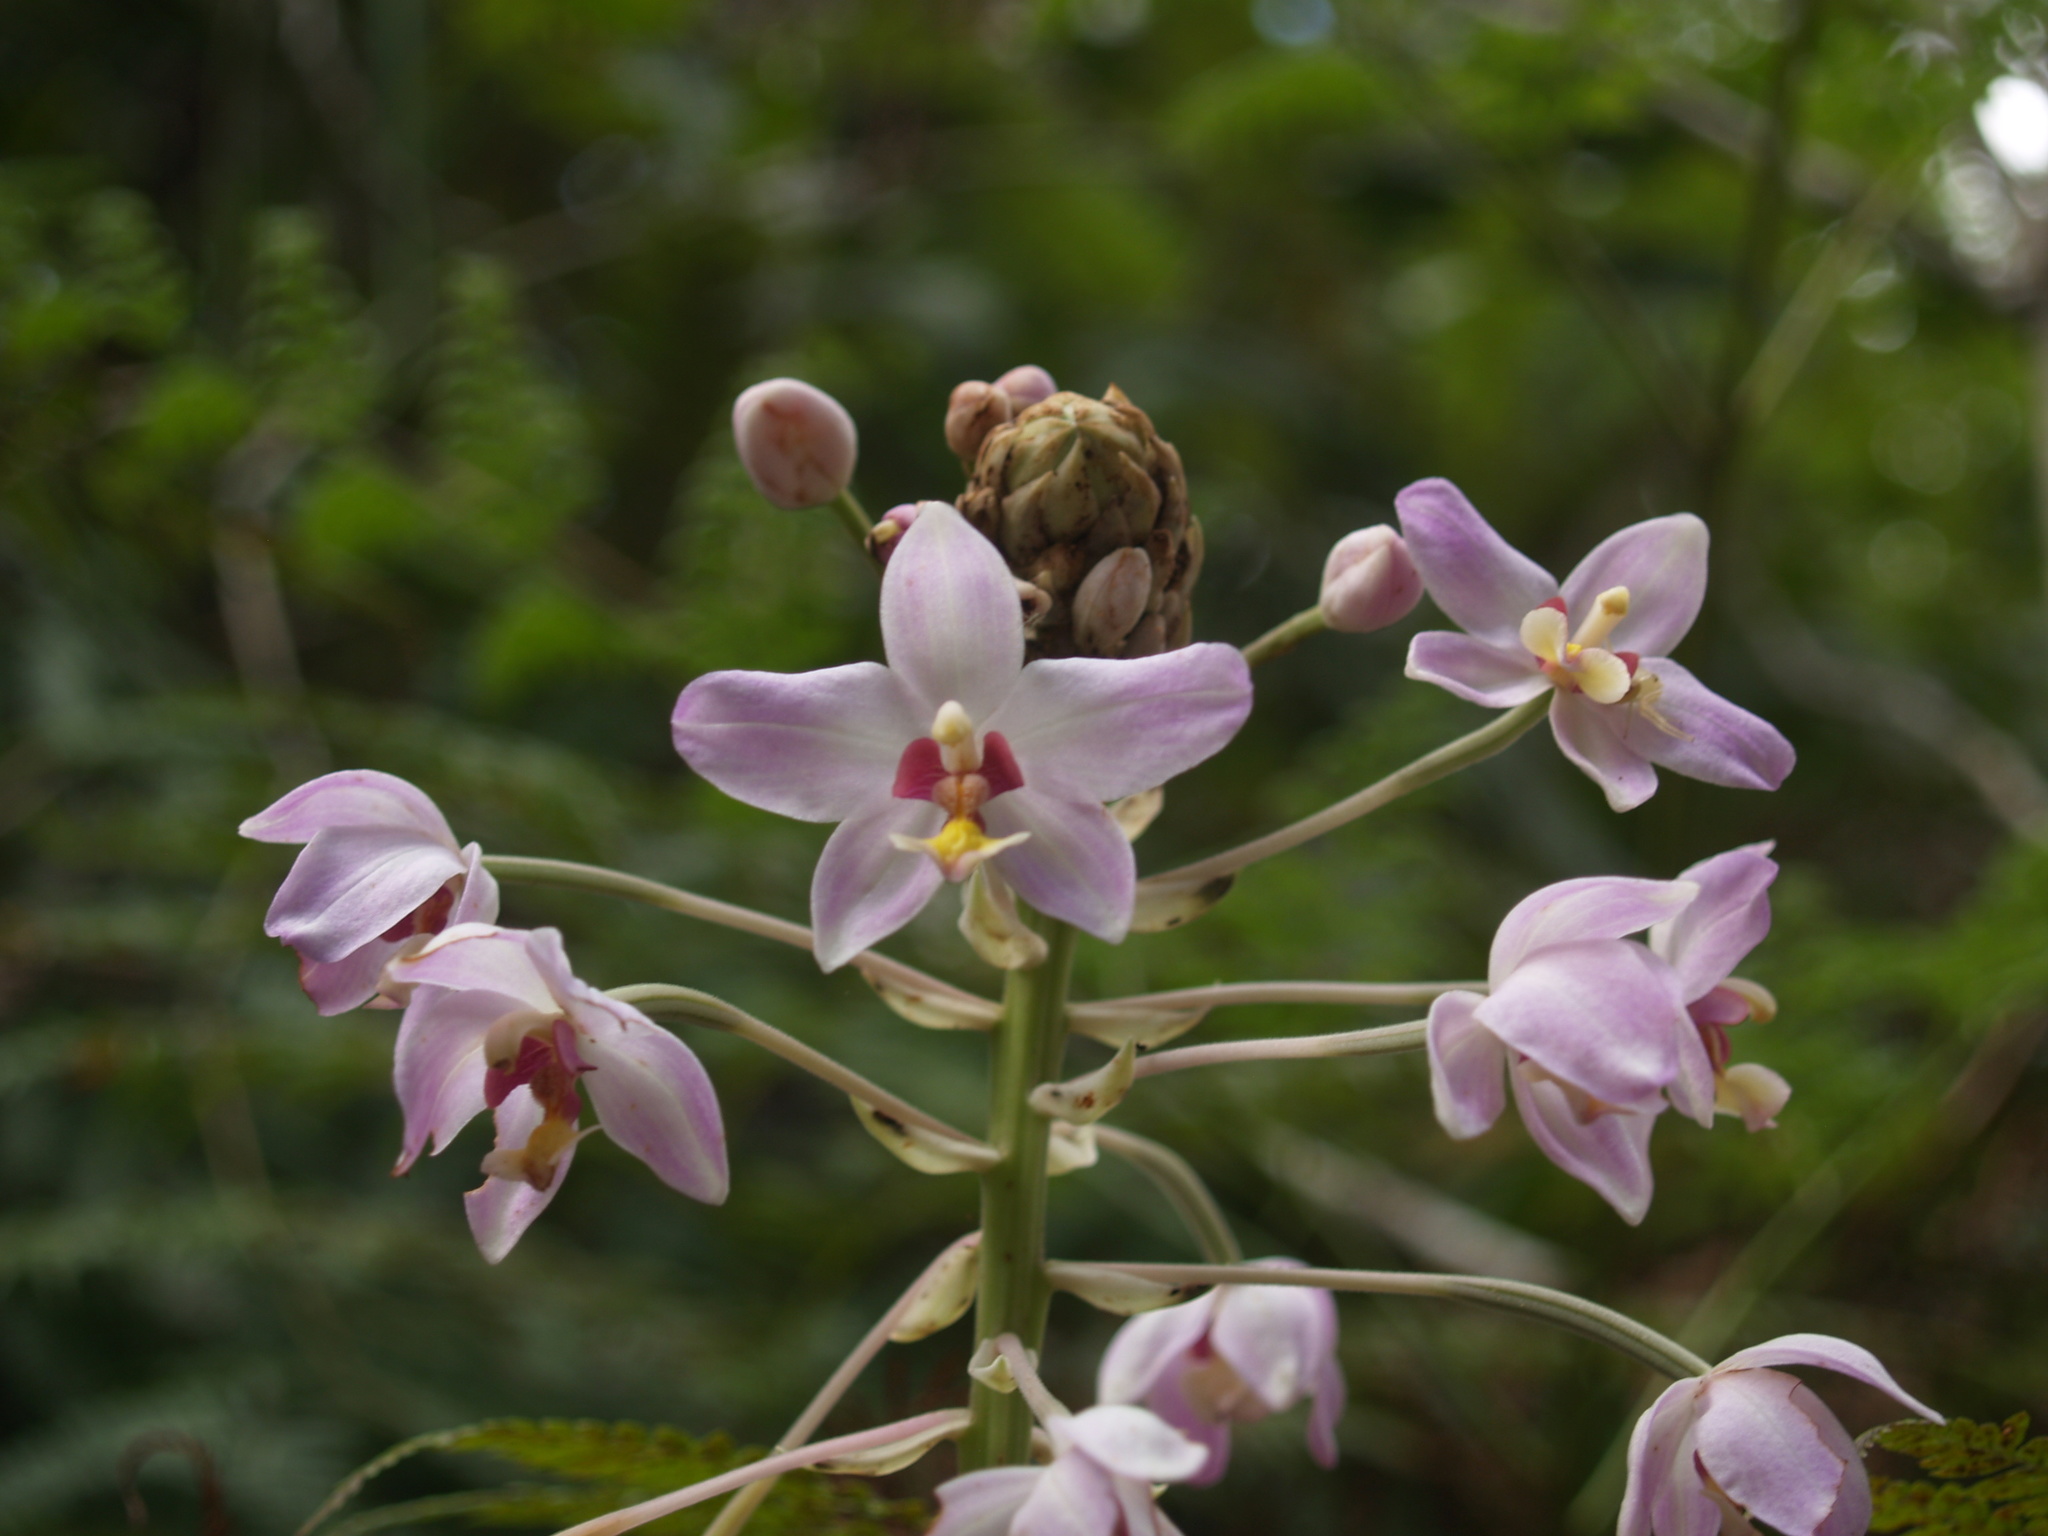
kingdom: Plantae
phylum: Tracheophyta
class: Liliopsida
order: Asparagales
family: Orchidaceae
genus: Spathoglottis
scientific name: Spathoglottis pacifica
